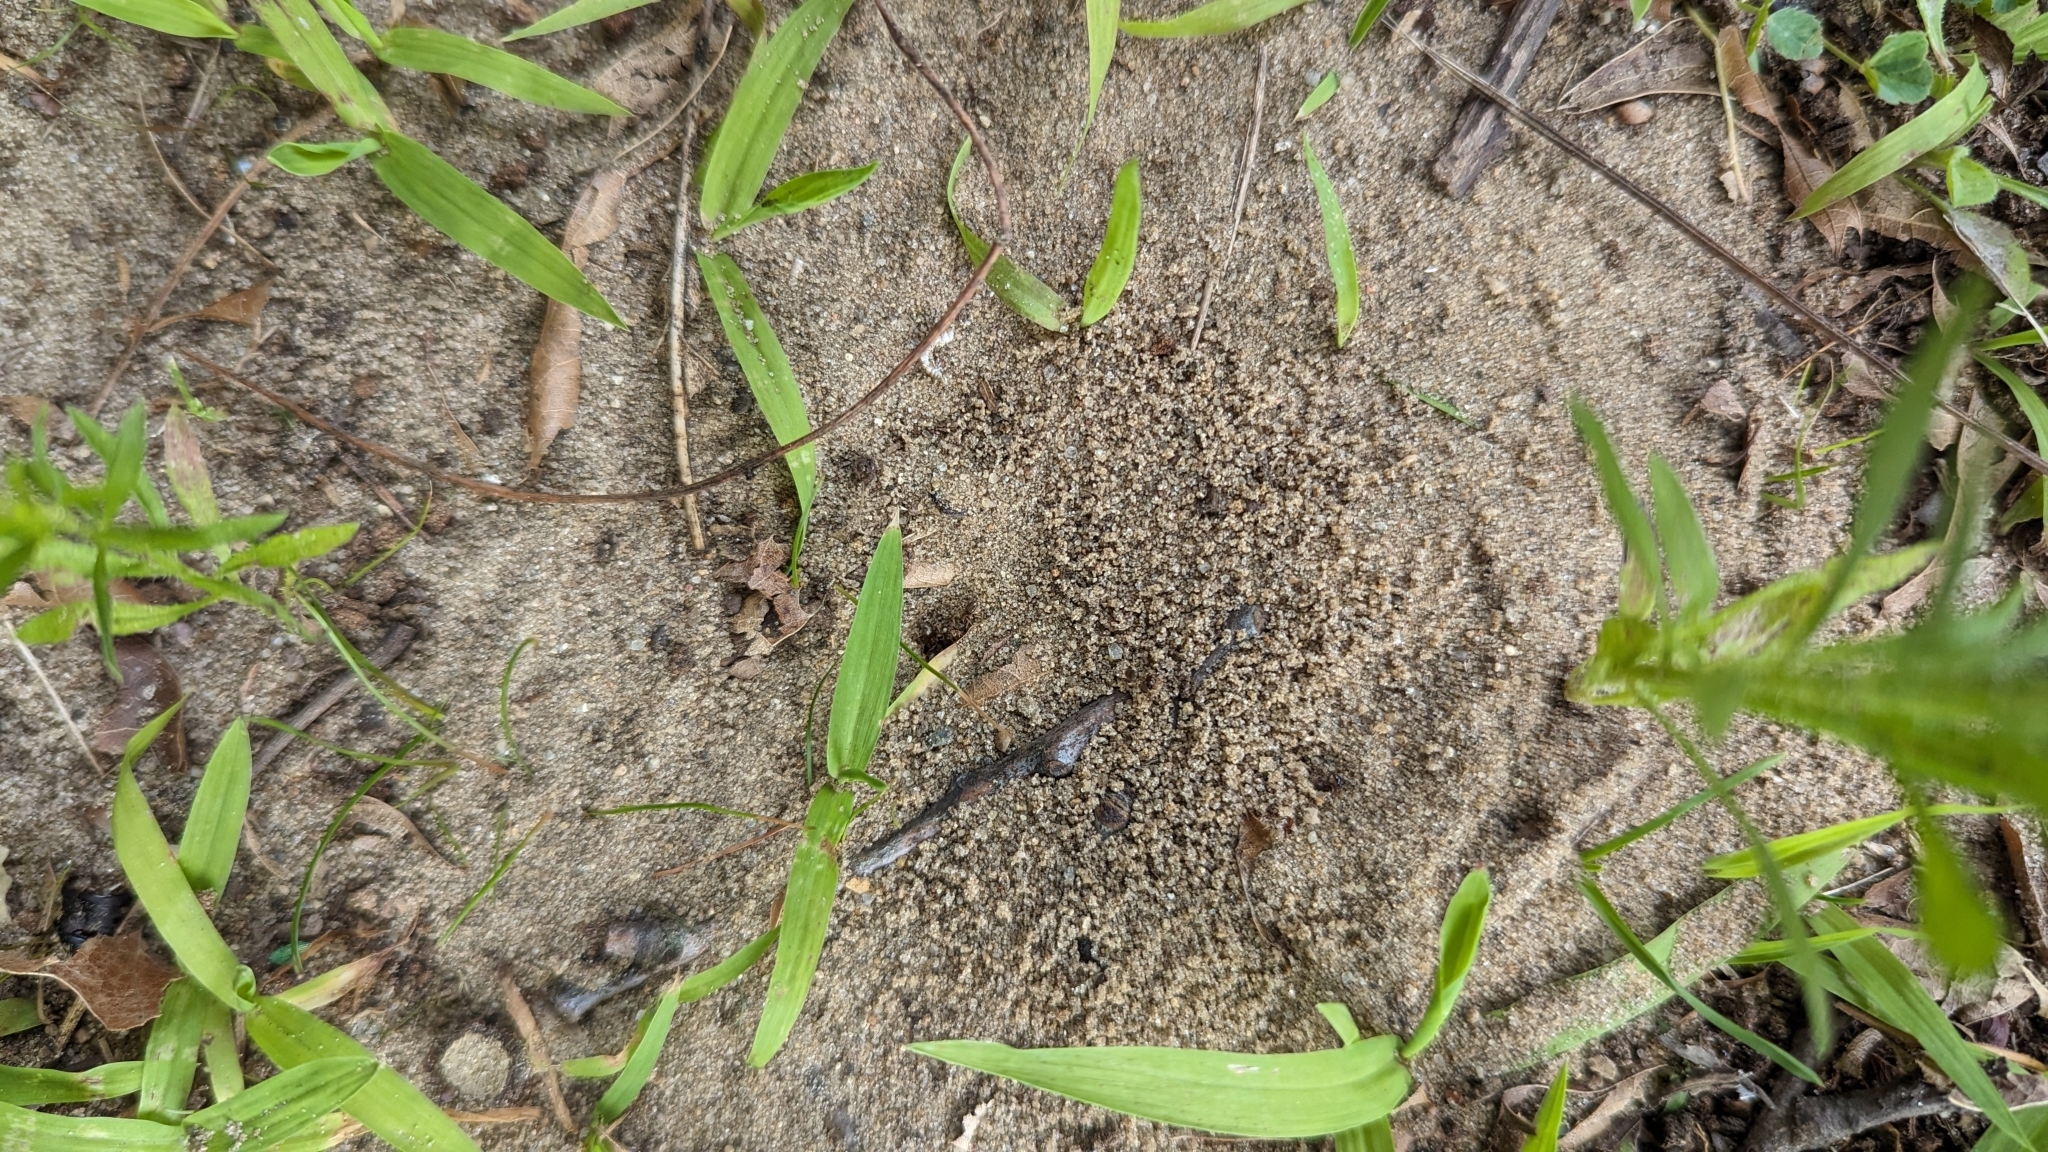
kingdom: Animalia
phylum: Arthropoda
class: Insecta
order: Hymenoptera
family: Formicidae
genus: Lasius
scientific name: Lasius neoniger
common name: Turfgrass ant
